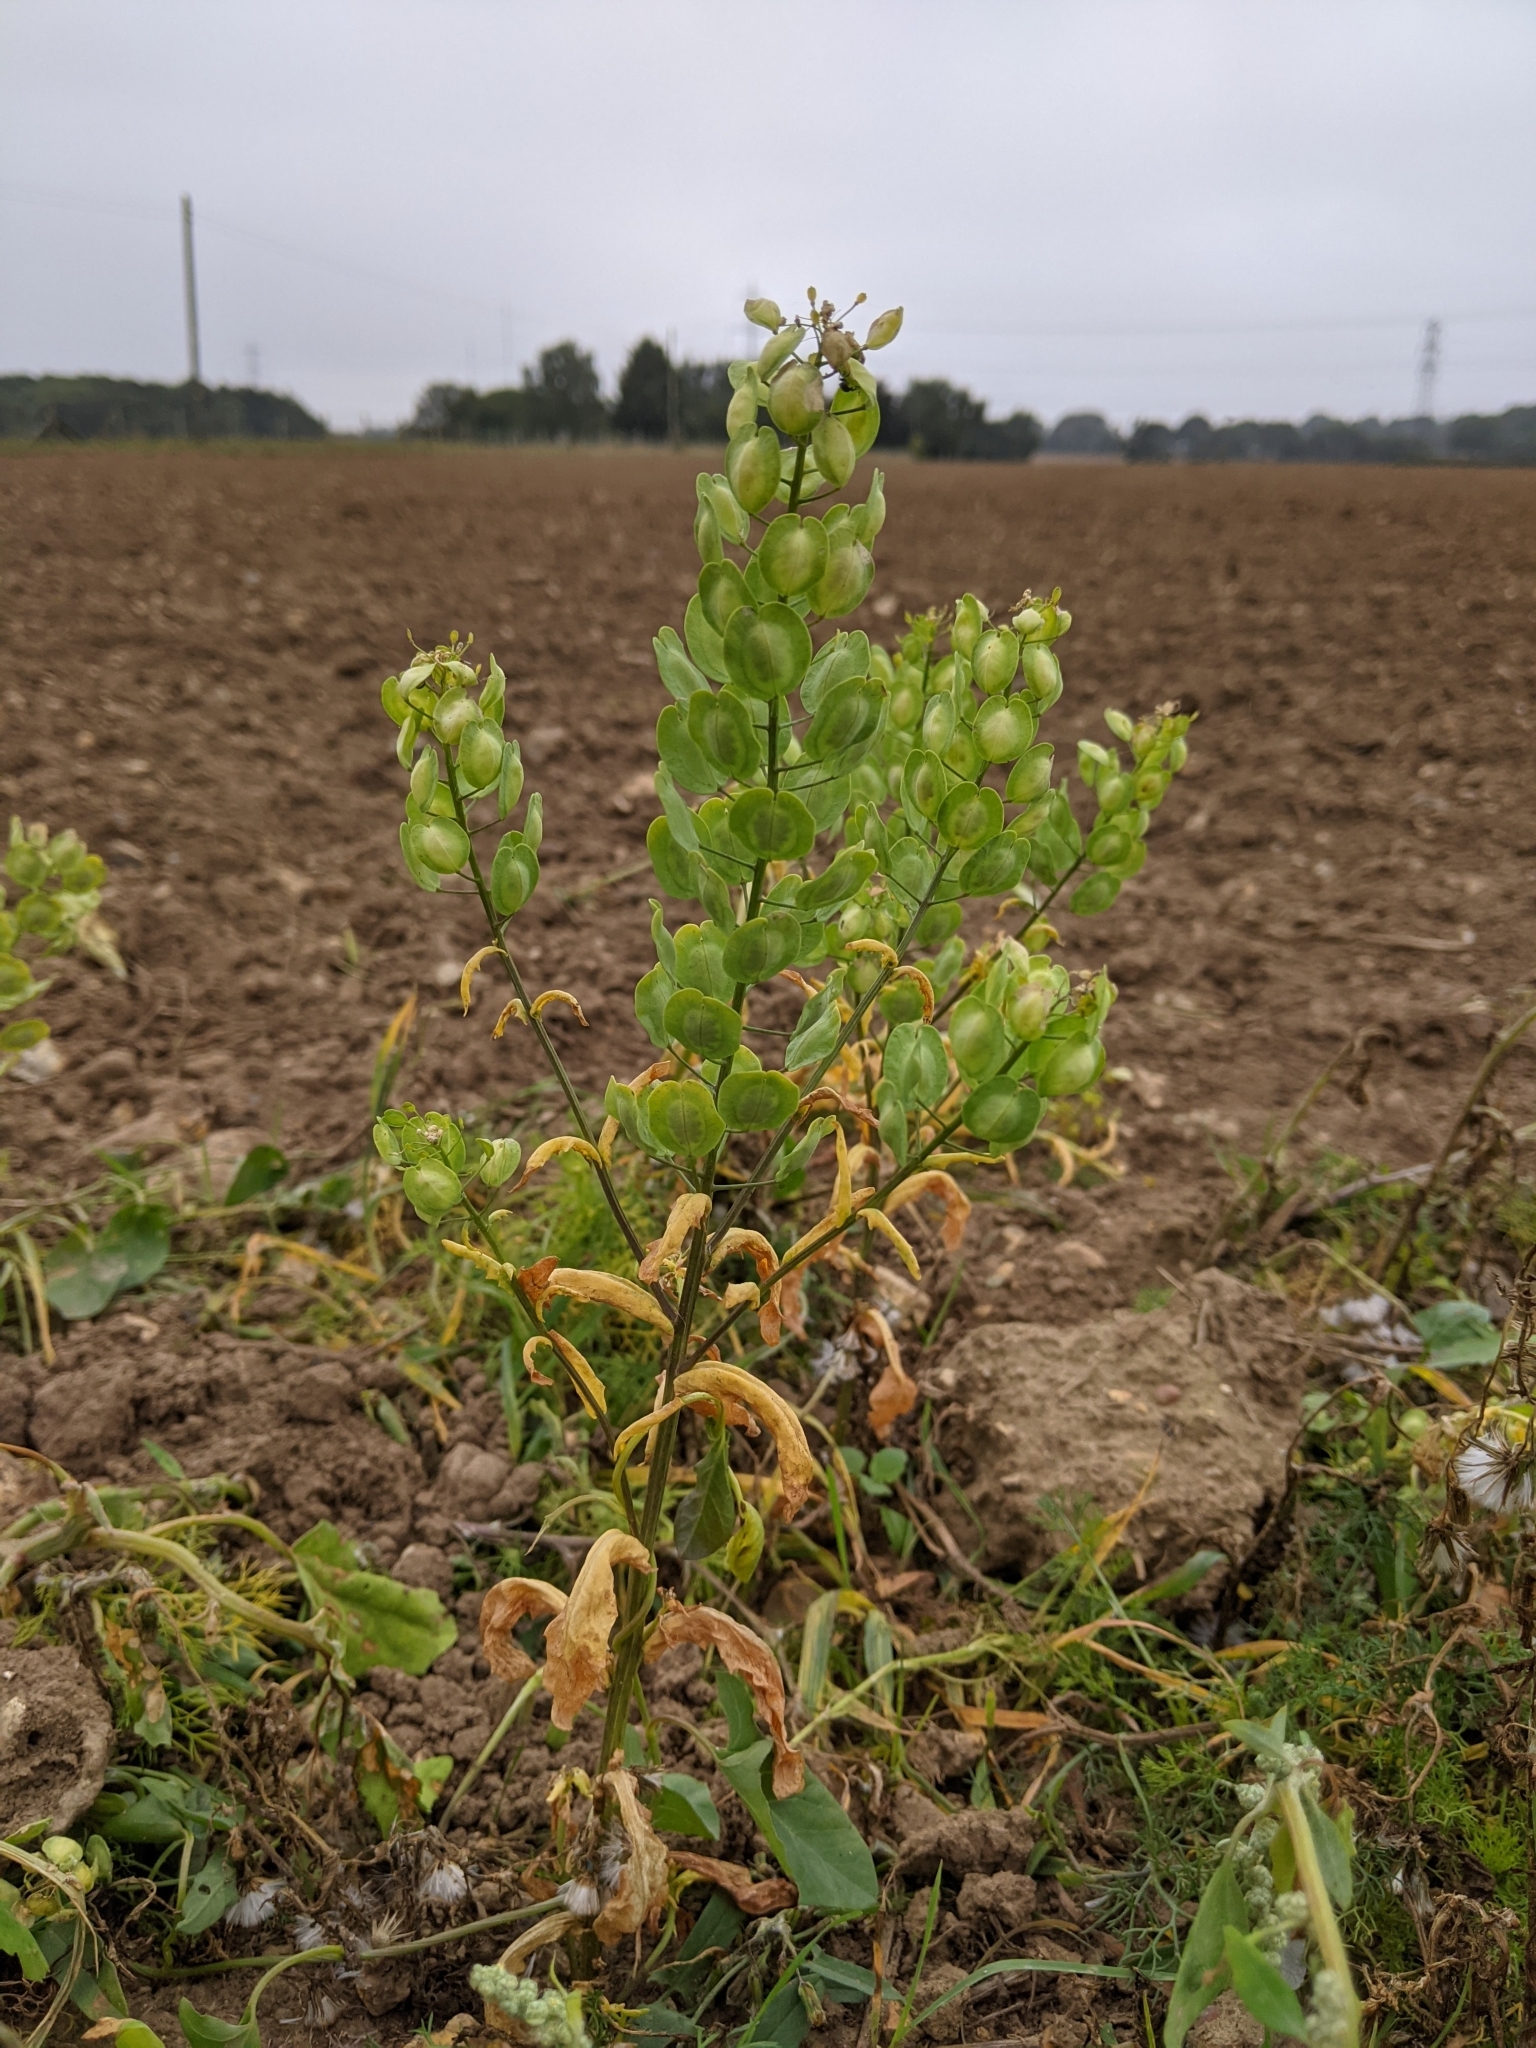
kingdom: Plantae
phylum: Tracheophyta
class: Magnoliopsida
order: Brassicales
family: Brassicaceae
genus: Thlaspi
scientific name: Thlaspi arvense
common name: Field pennycress
